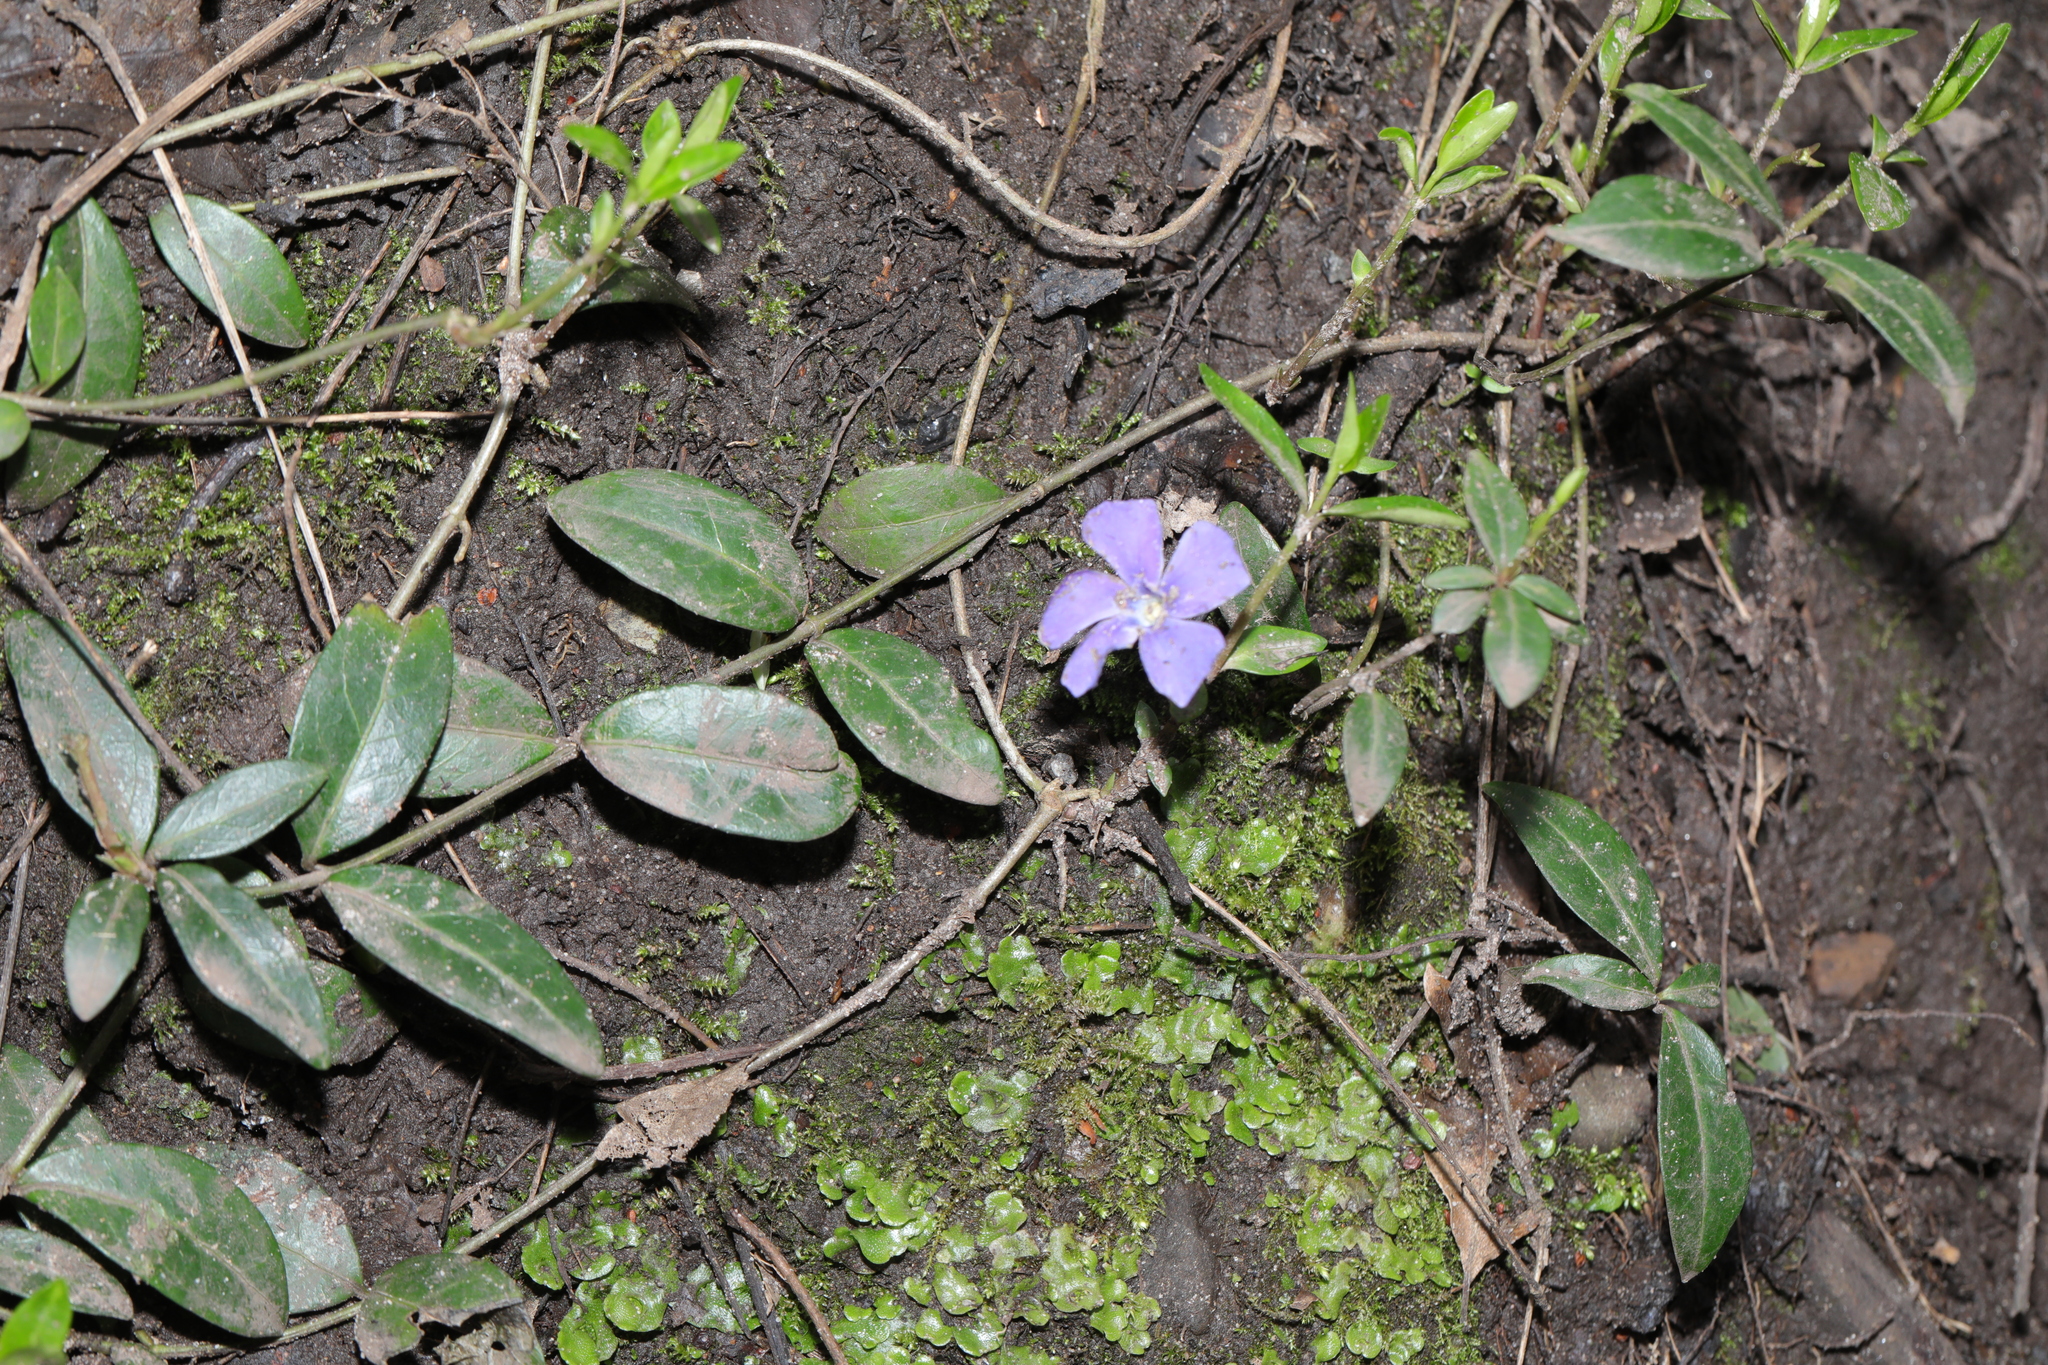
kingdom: Plantae
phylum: Tracheophyta
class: Magnoliopsida
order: Gentianales
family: Apocynaceae
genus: Vinca
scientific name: Vinca minor
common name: Lesser periwinkle
